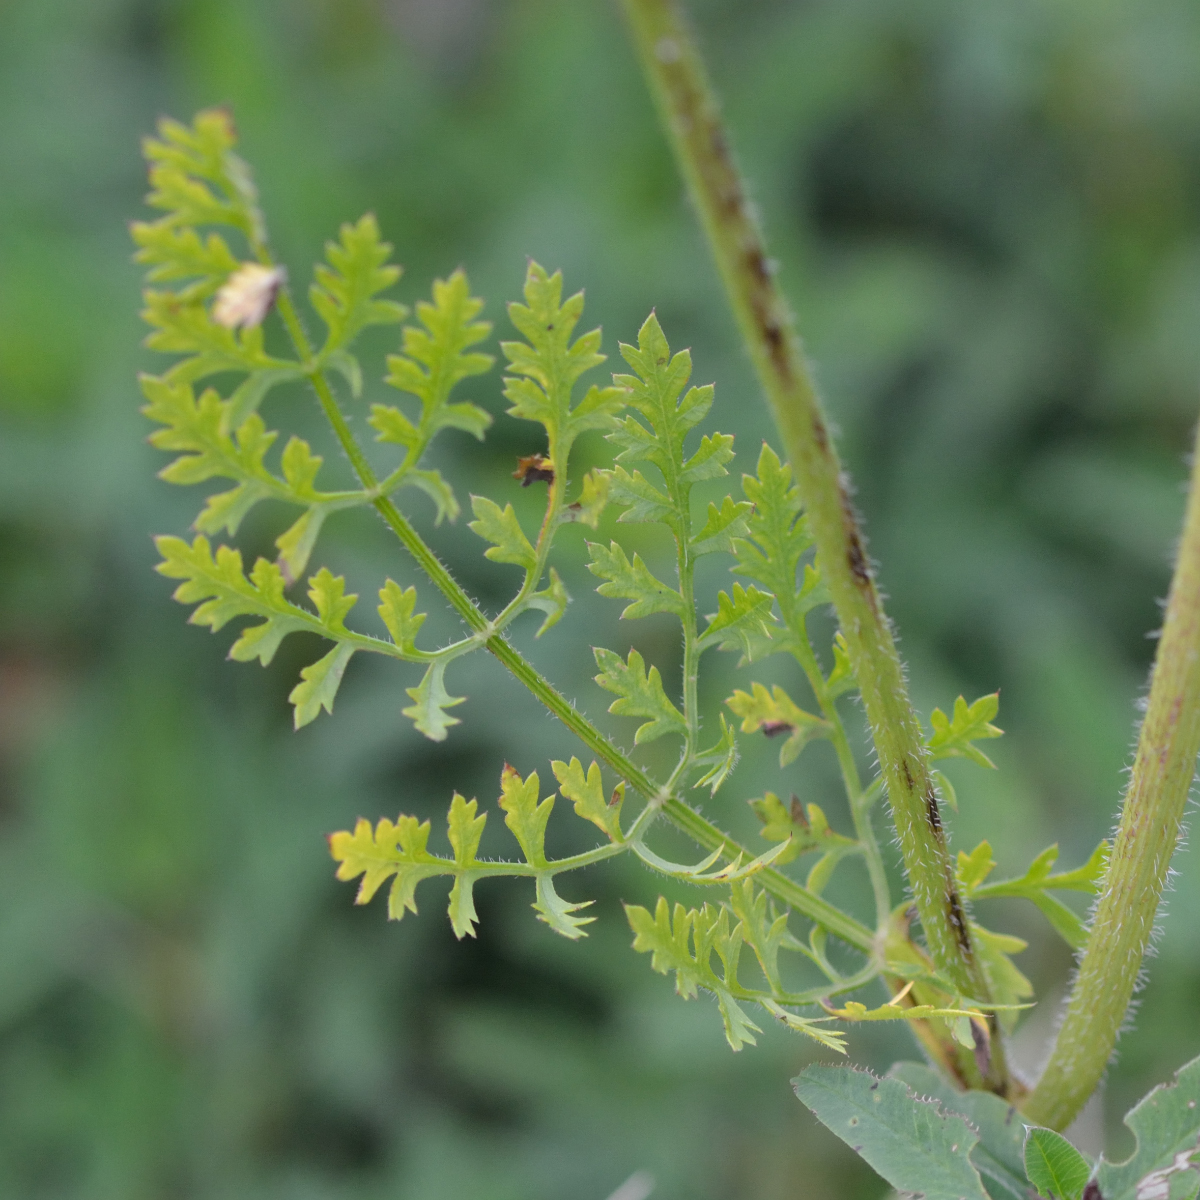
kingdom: Plantae
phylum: Tracheophyta
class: Magnoliopsida
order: Apiales
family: Apiaceae
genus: Daucus
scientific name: Daucus carota
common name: Wild carrot
